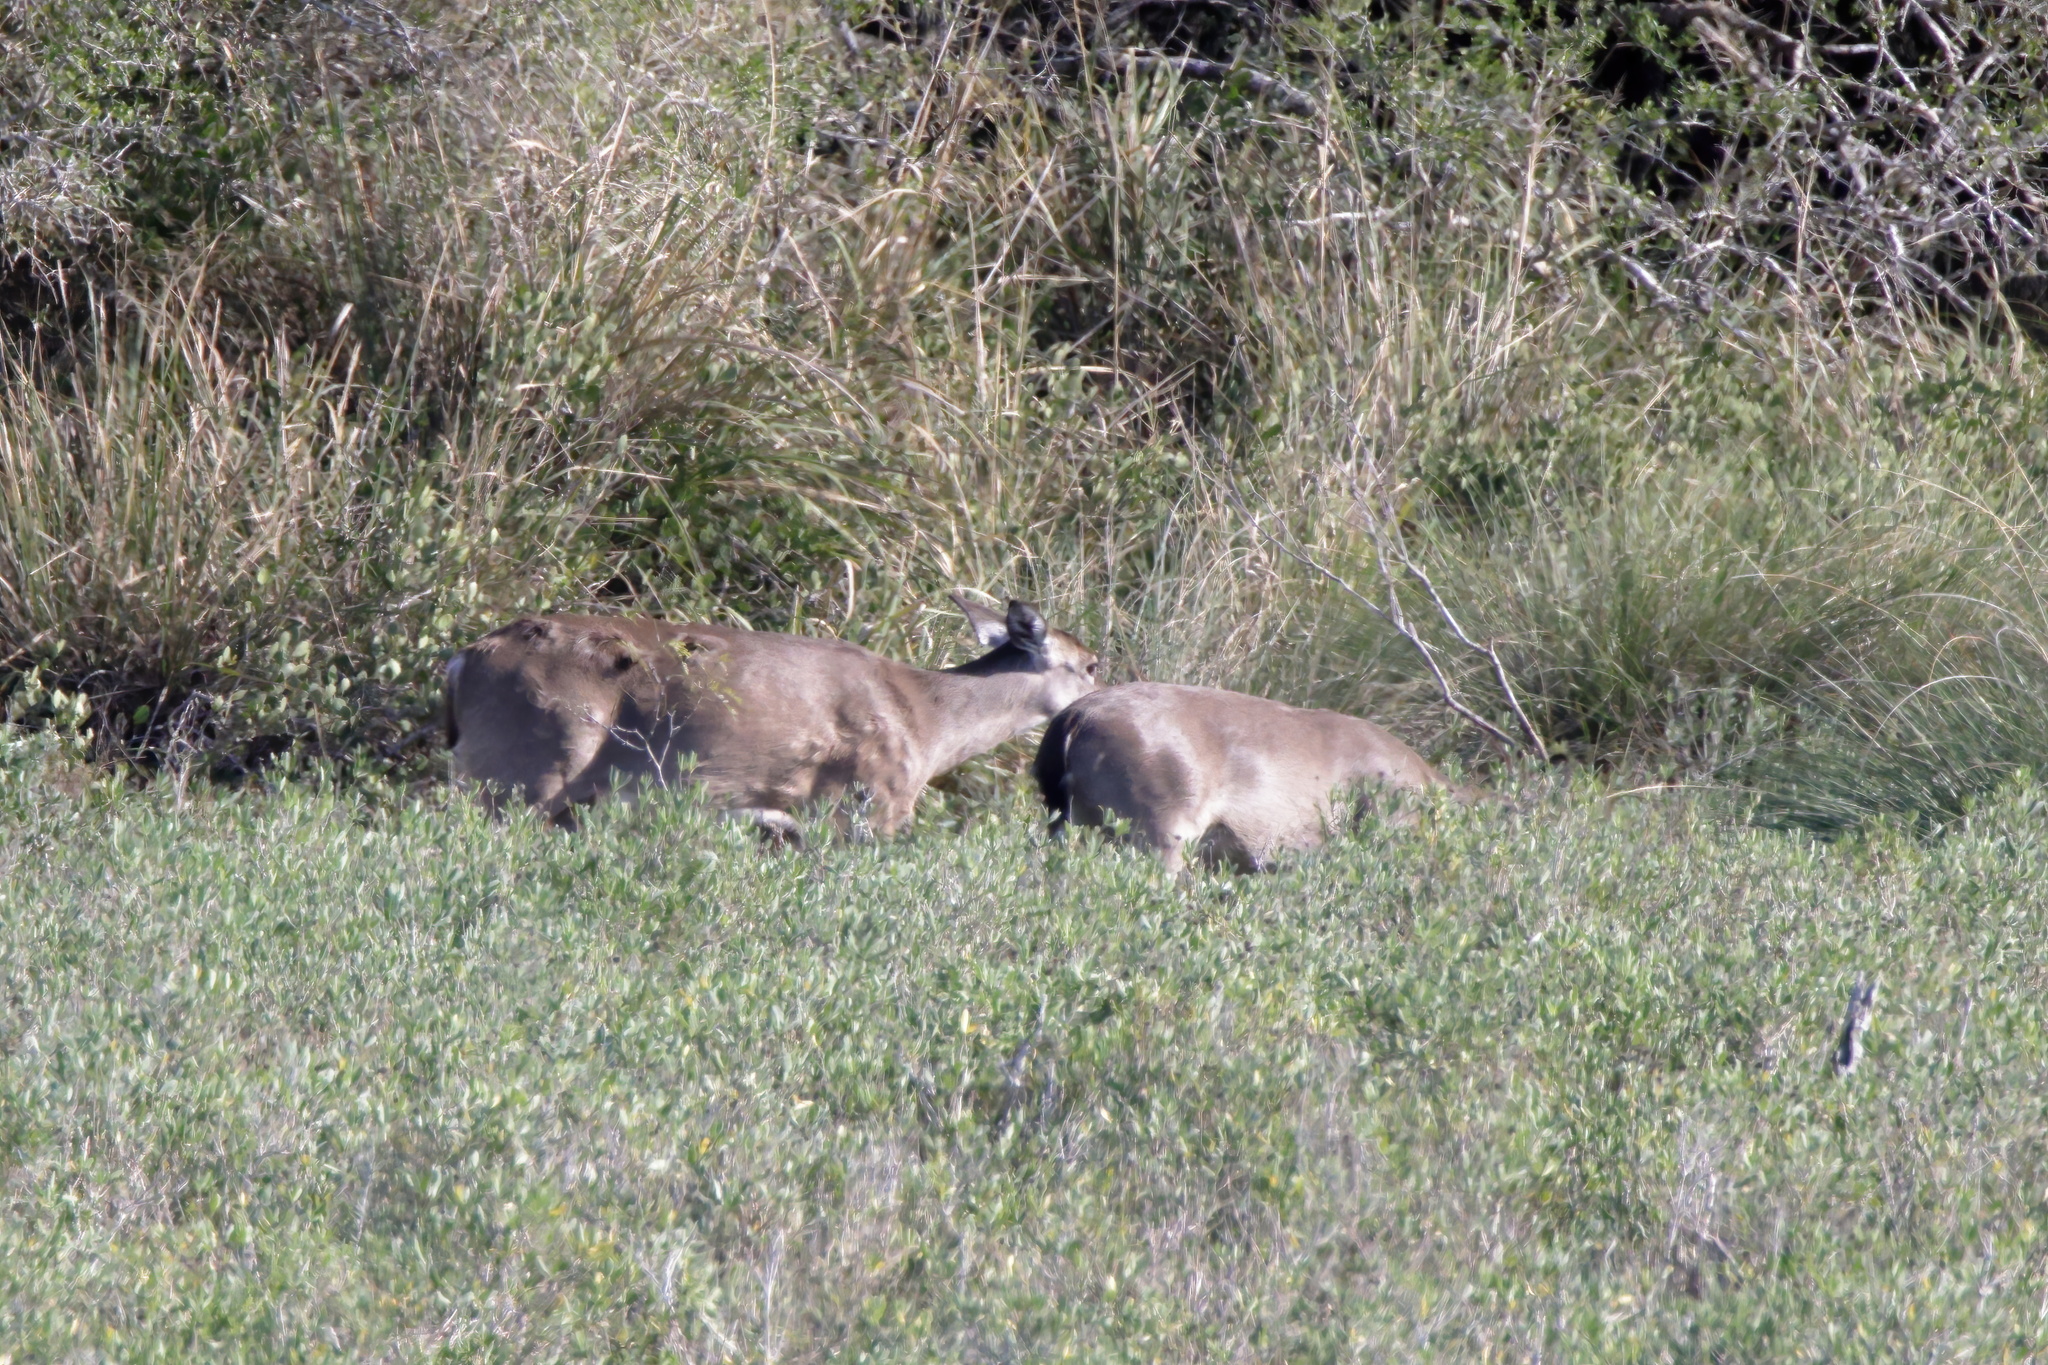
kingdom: Animalia
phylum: Chordata
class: Mammalia
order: Artiodactyla
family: Cervidae
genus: Odocoileus
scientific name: Odocoileus virginianus
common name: White-tailed deer
